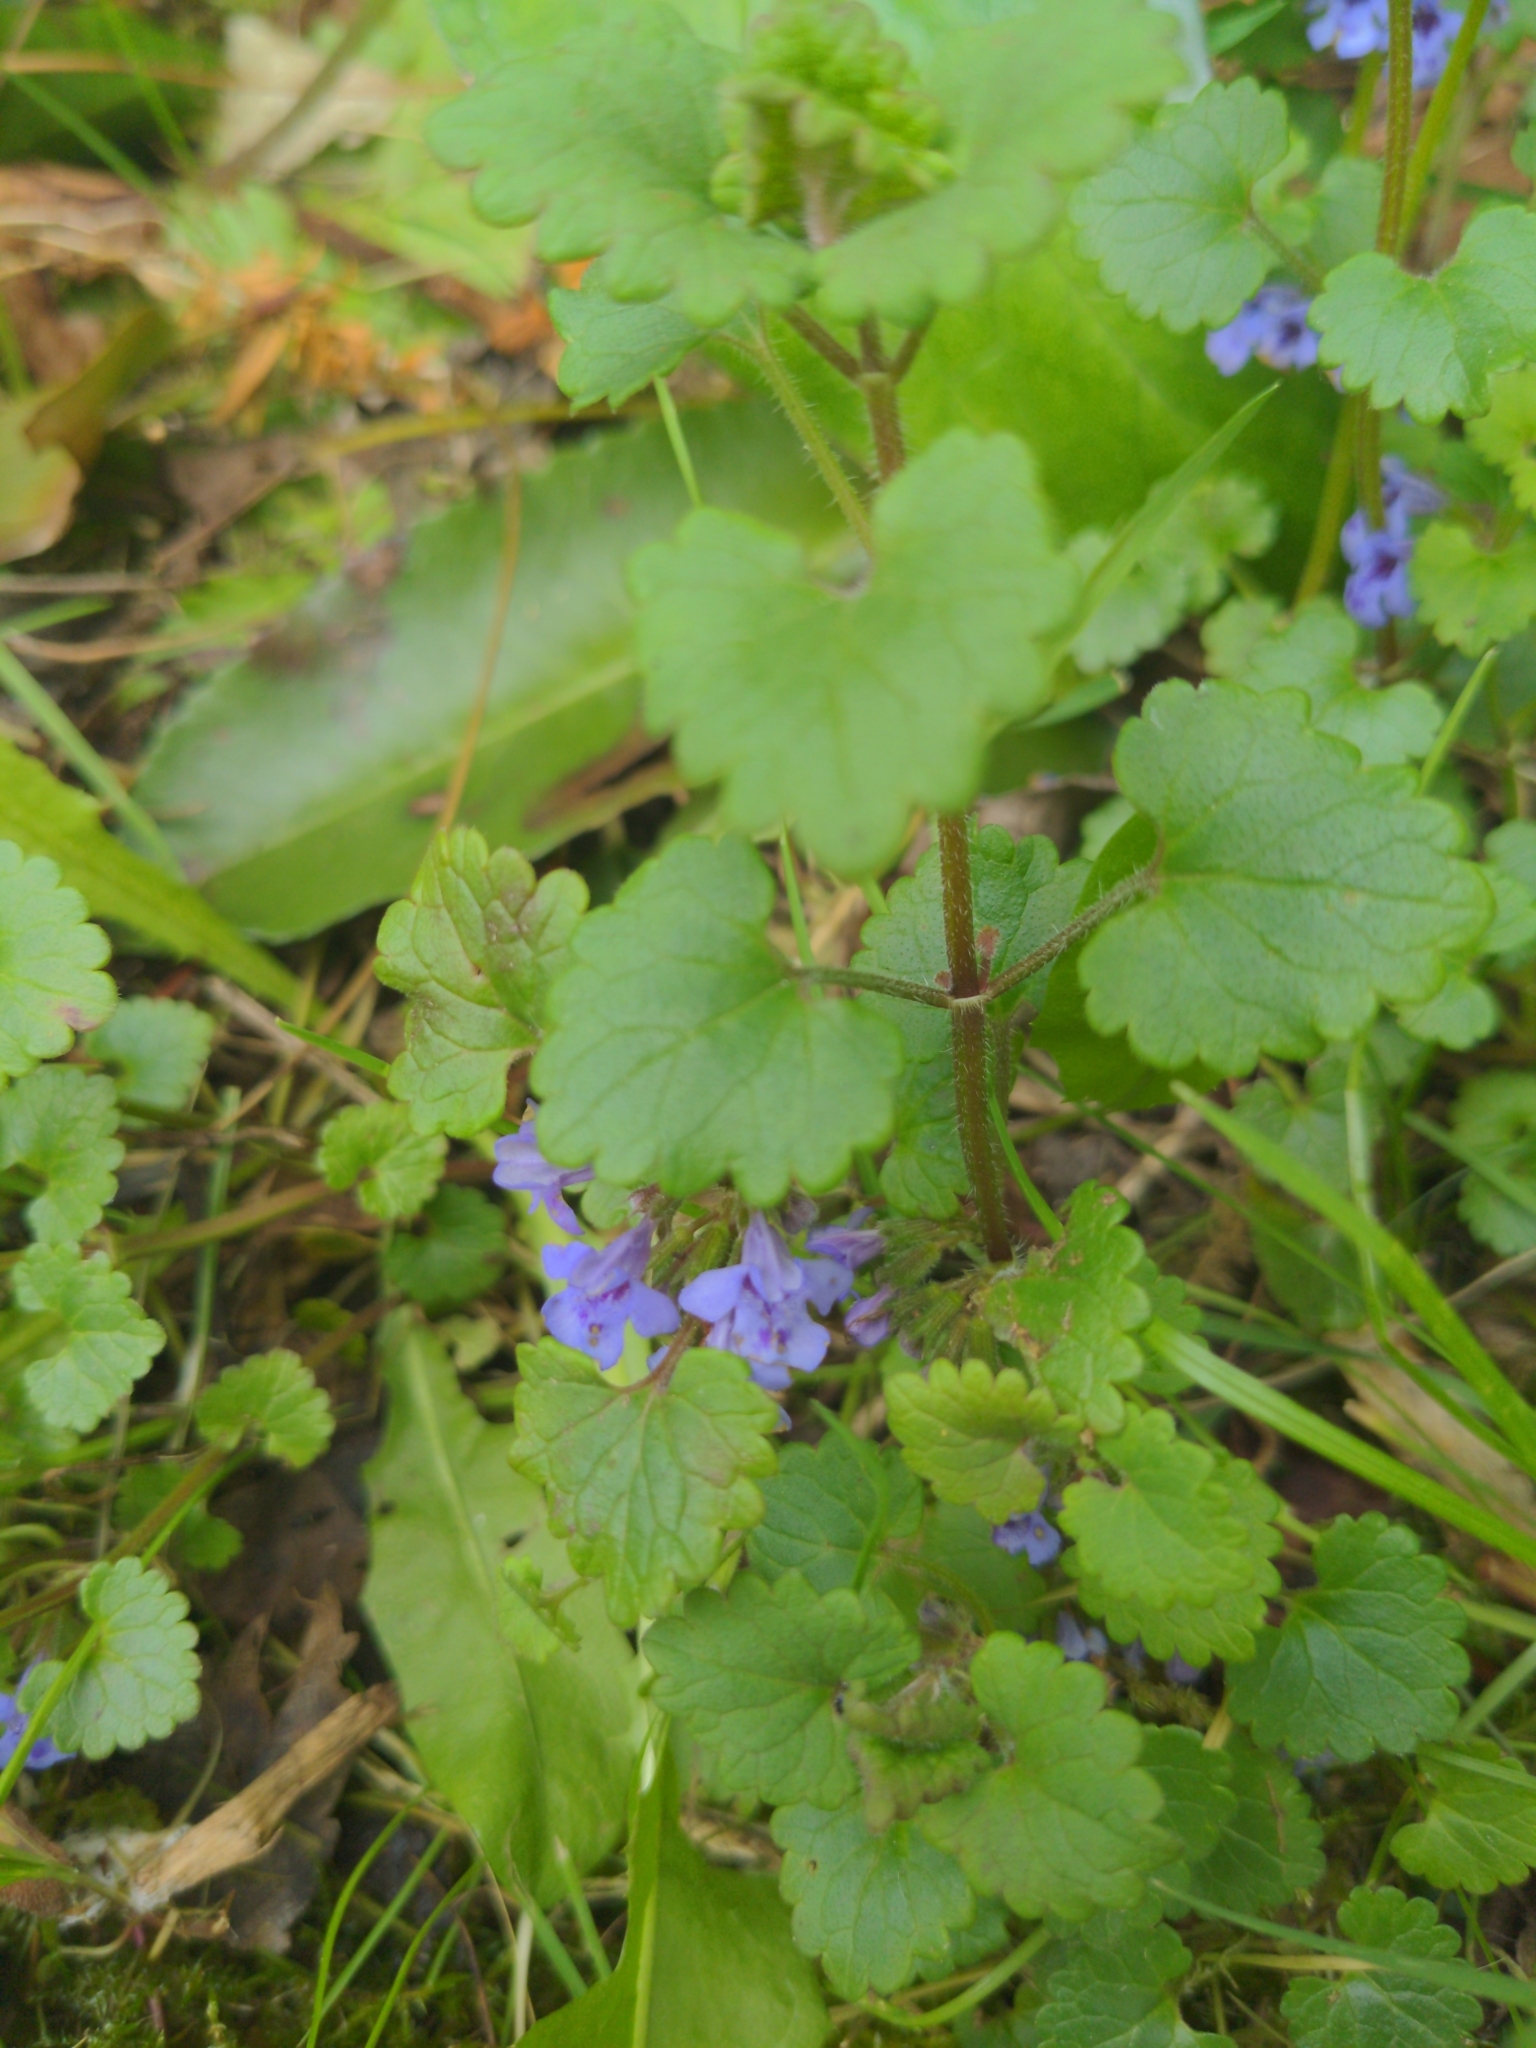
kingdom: Plantae
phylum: Tracheophyta
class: Magnoliopsida
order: Lamiales
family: Lamiaceae
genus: Glechoma
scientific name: Glechoma hederacea
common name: Ground ivy
